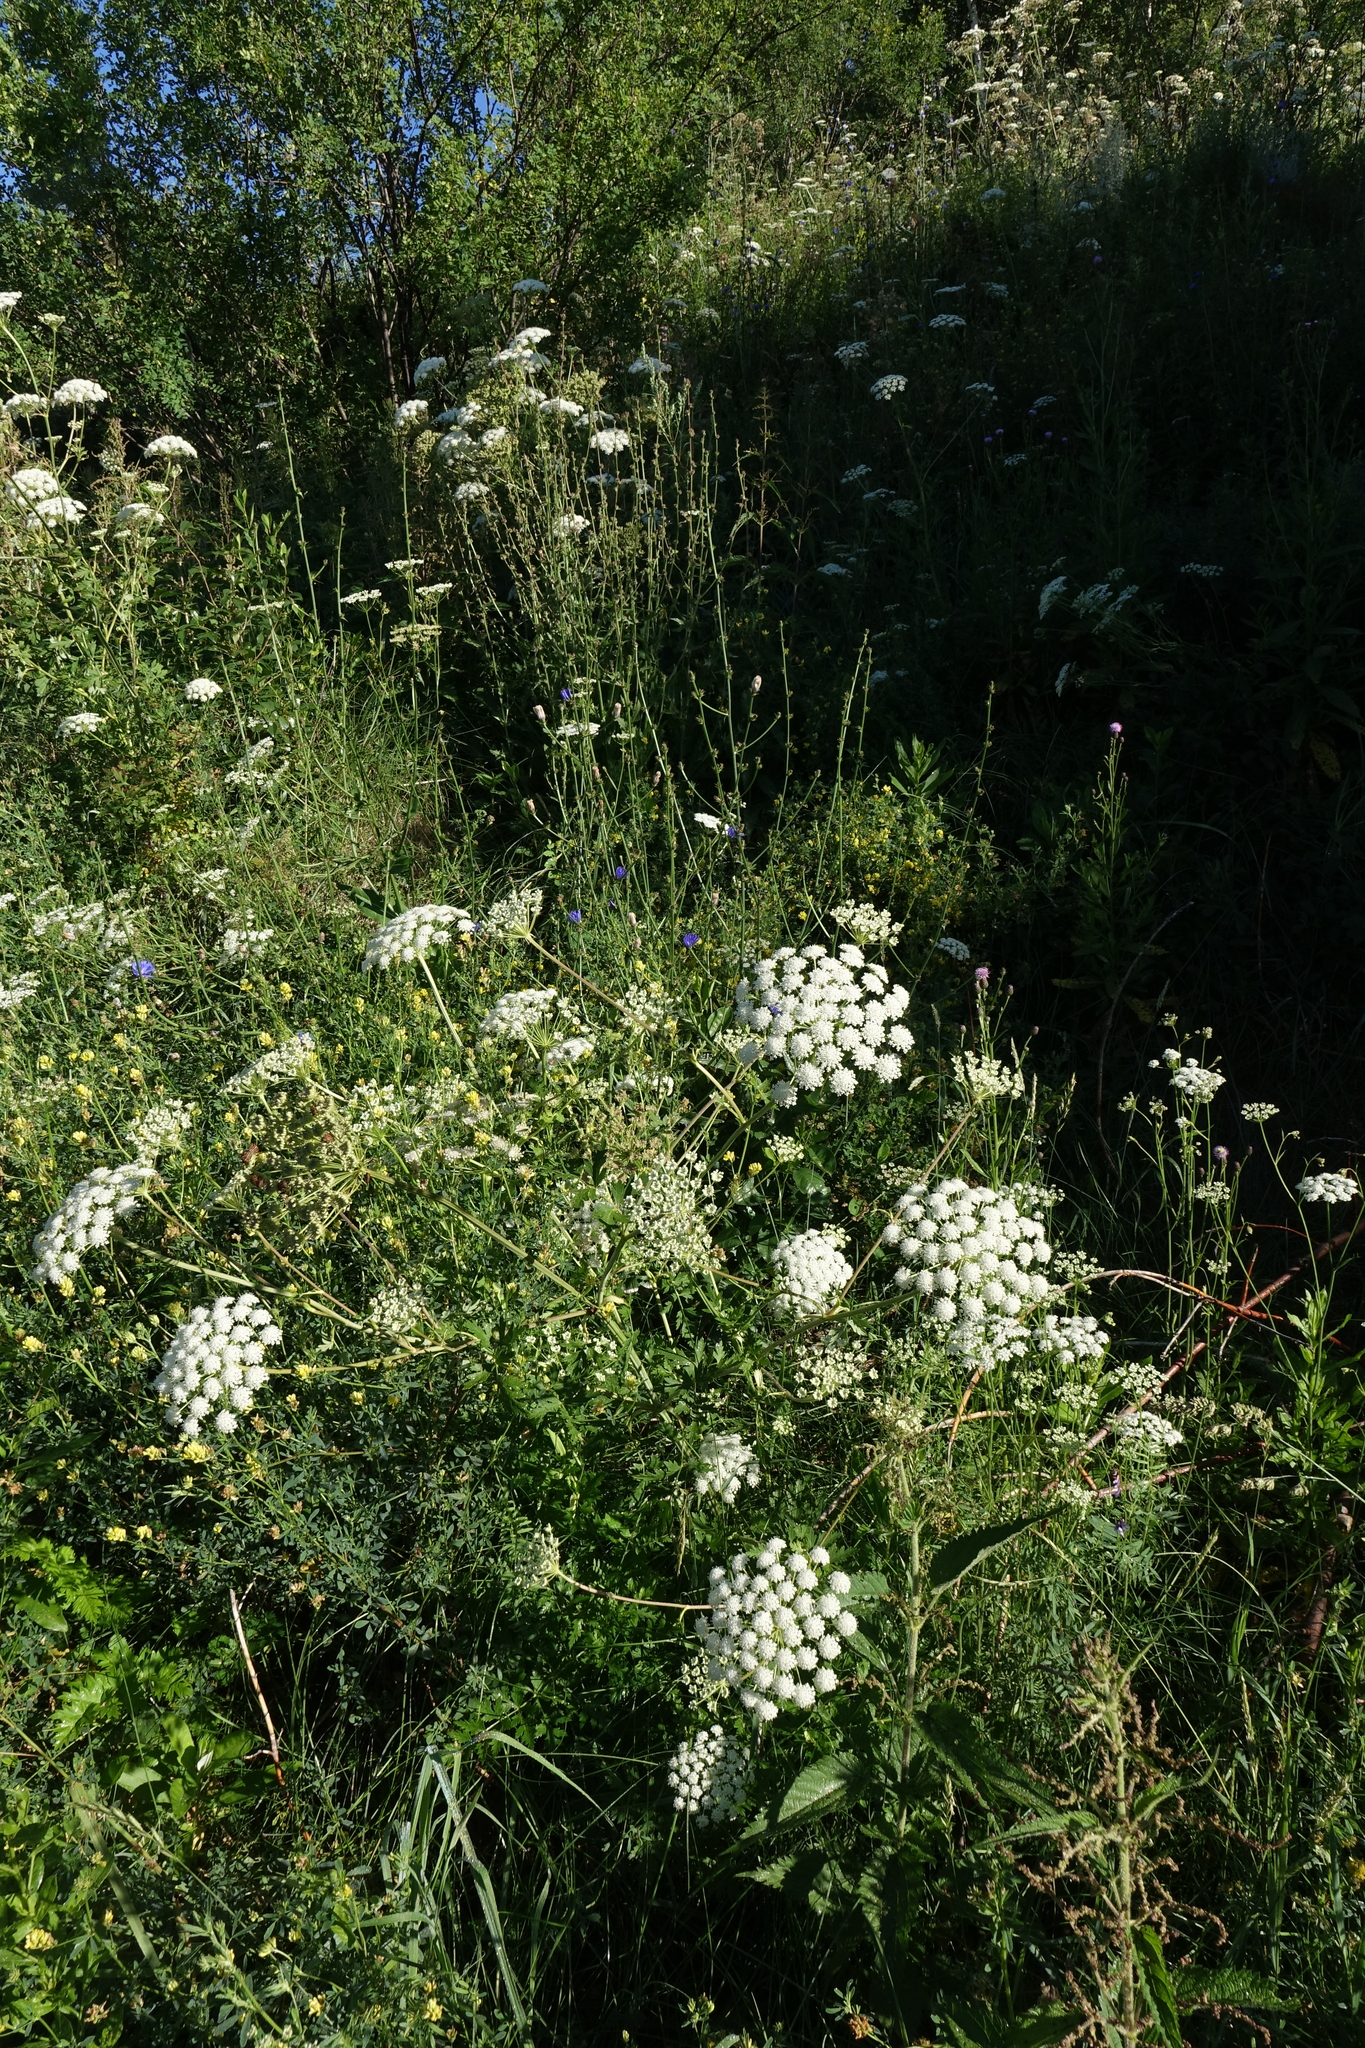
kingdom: Plantae
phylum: Tracheophyta
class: Magnoliopsida
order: Apiales
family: Apiaceae
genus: Seseli
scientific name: Seseli libanotis
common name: Mooncarrot
